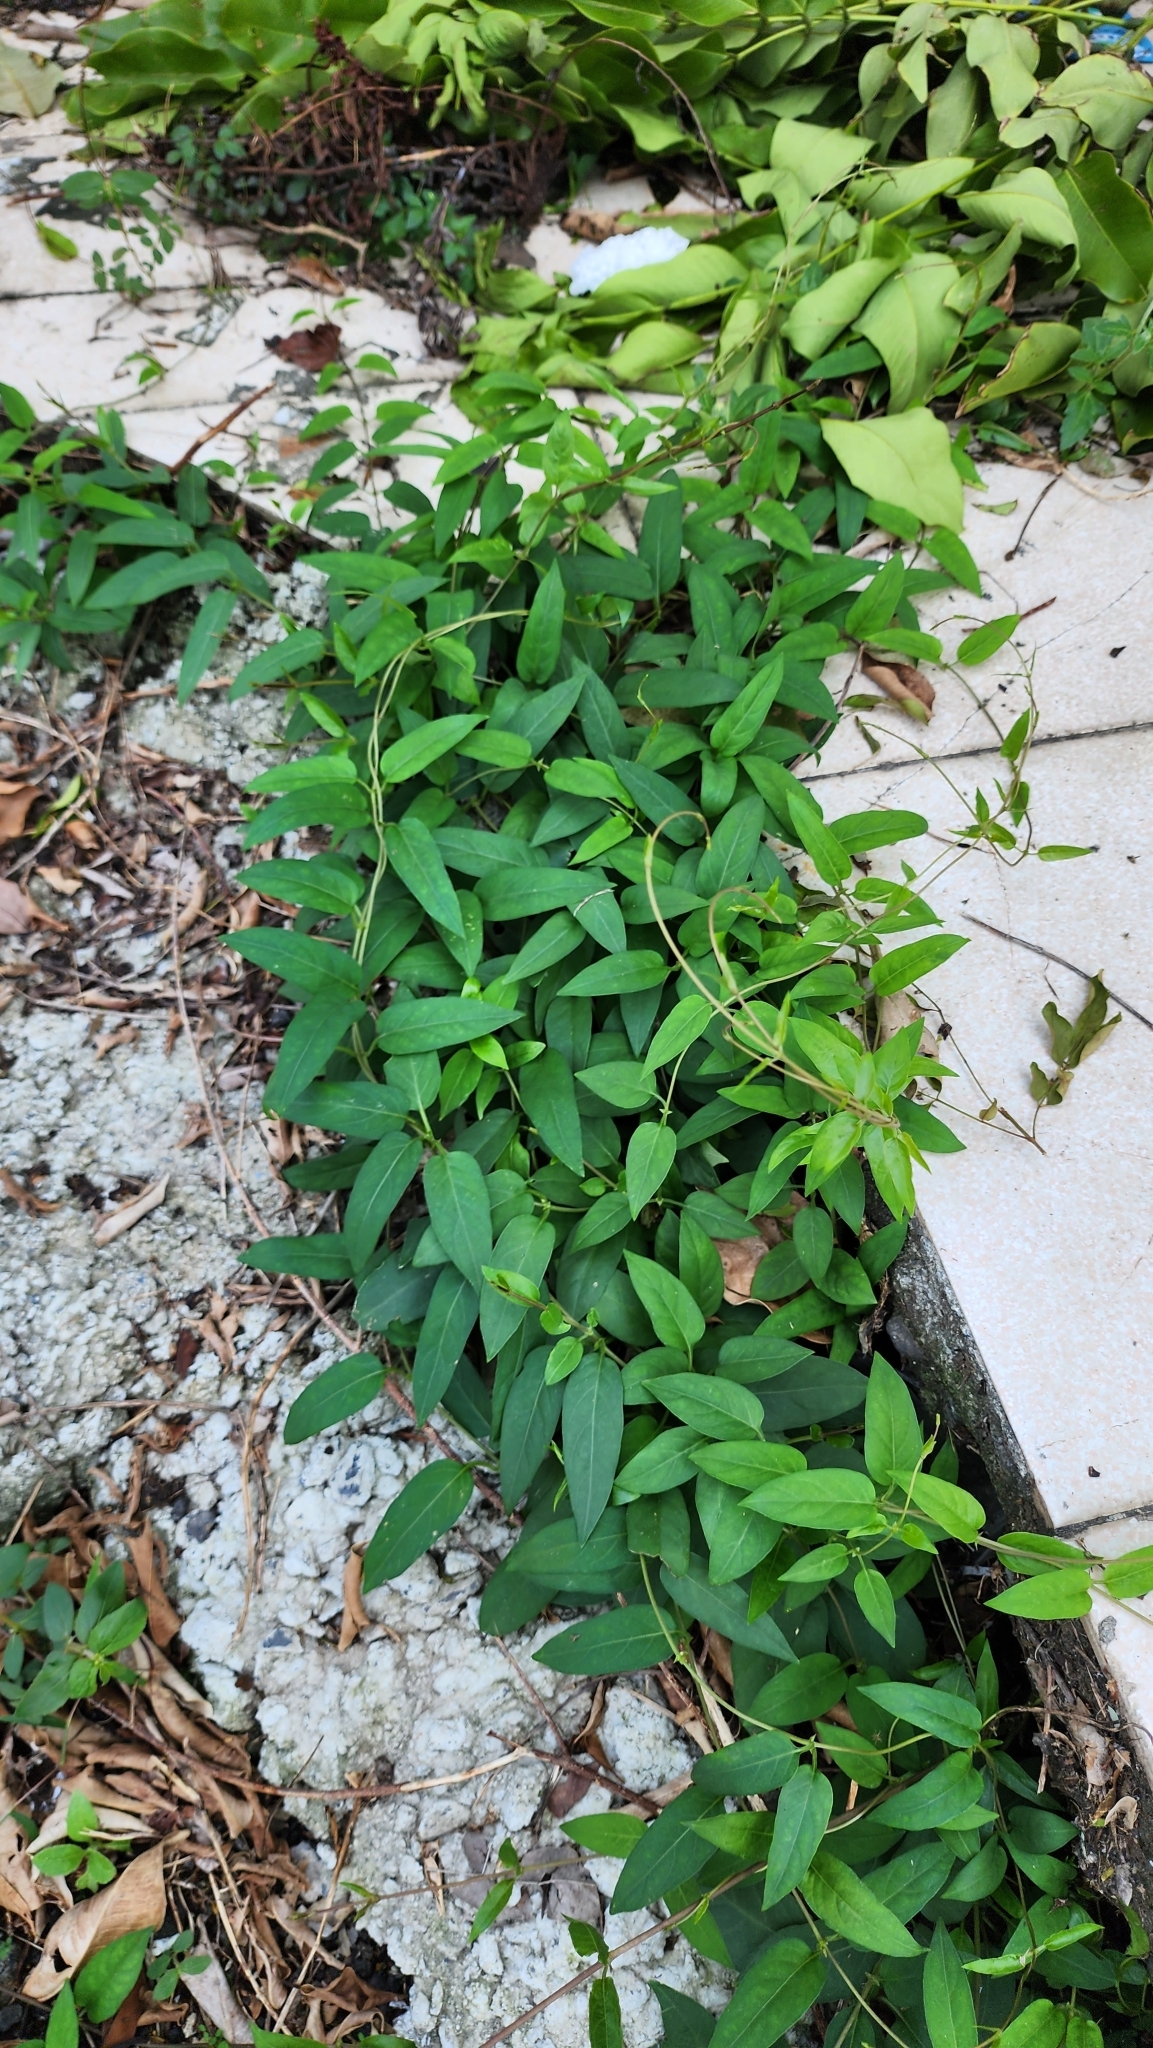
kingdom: Plantae
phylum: Tracheophyta
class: Magnoliopsida
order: Gentianales
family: Rubiaceae
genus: Paederia
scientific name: Paederia foetida
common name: Stinkvine
